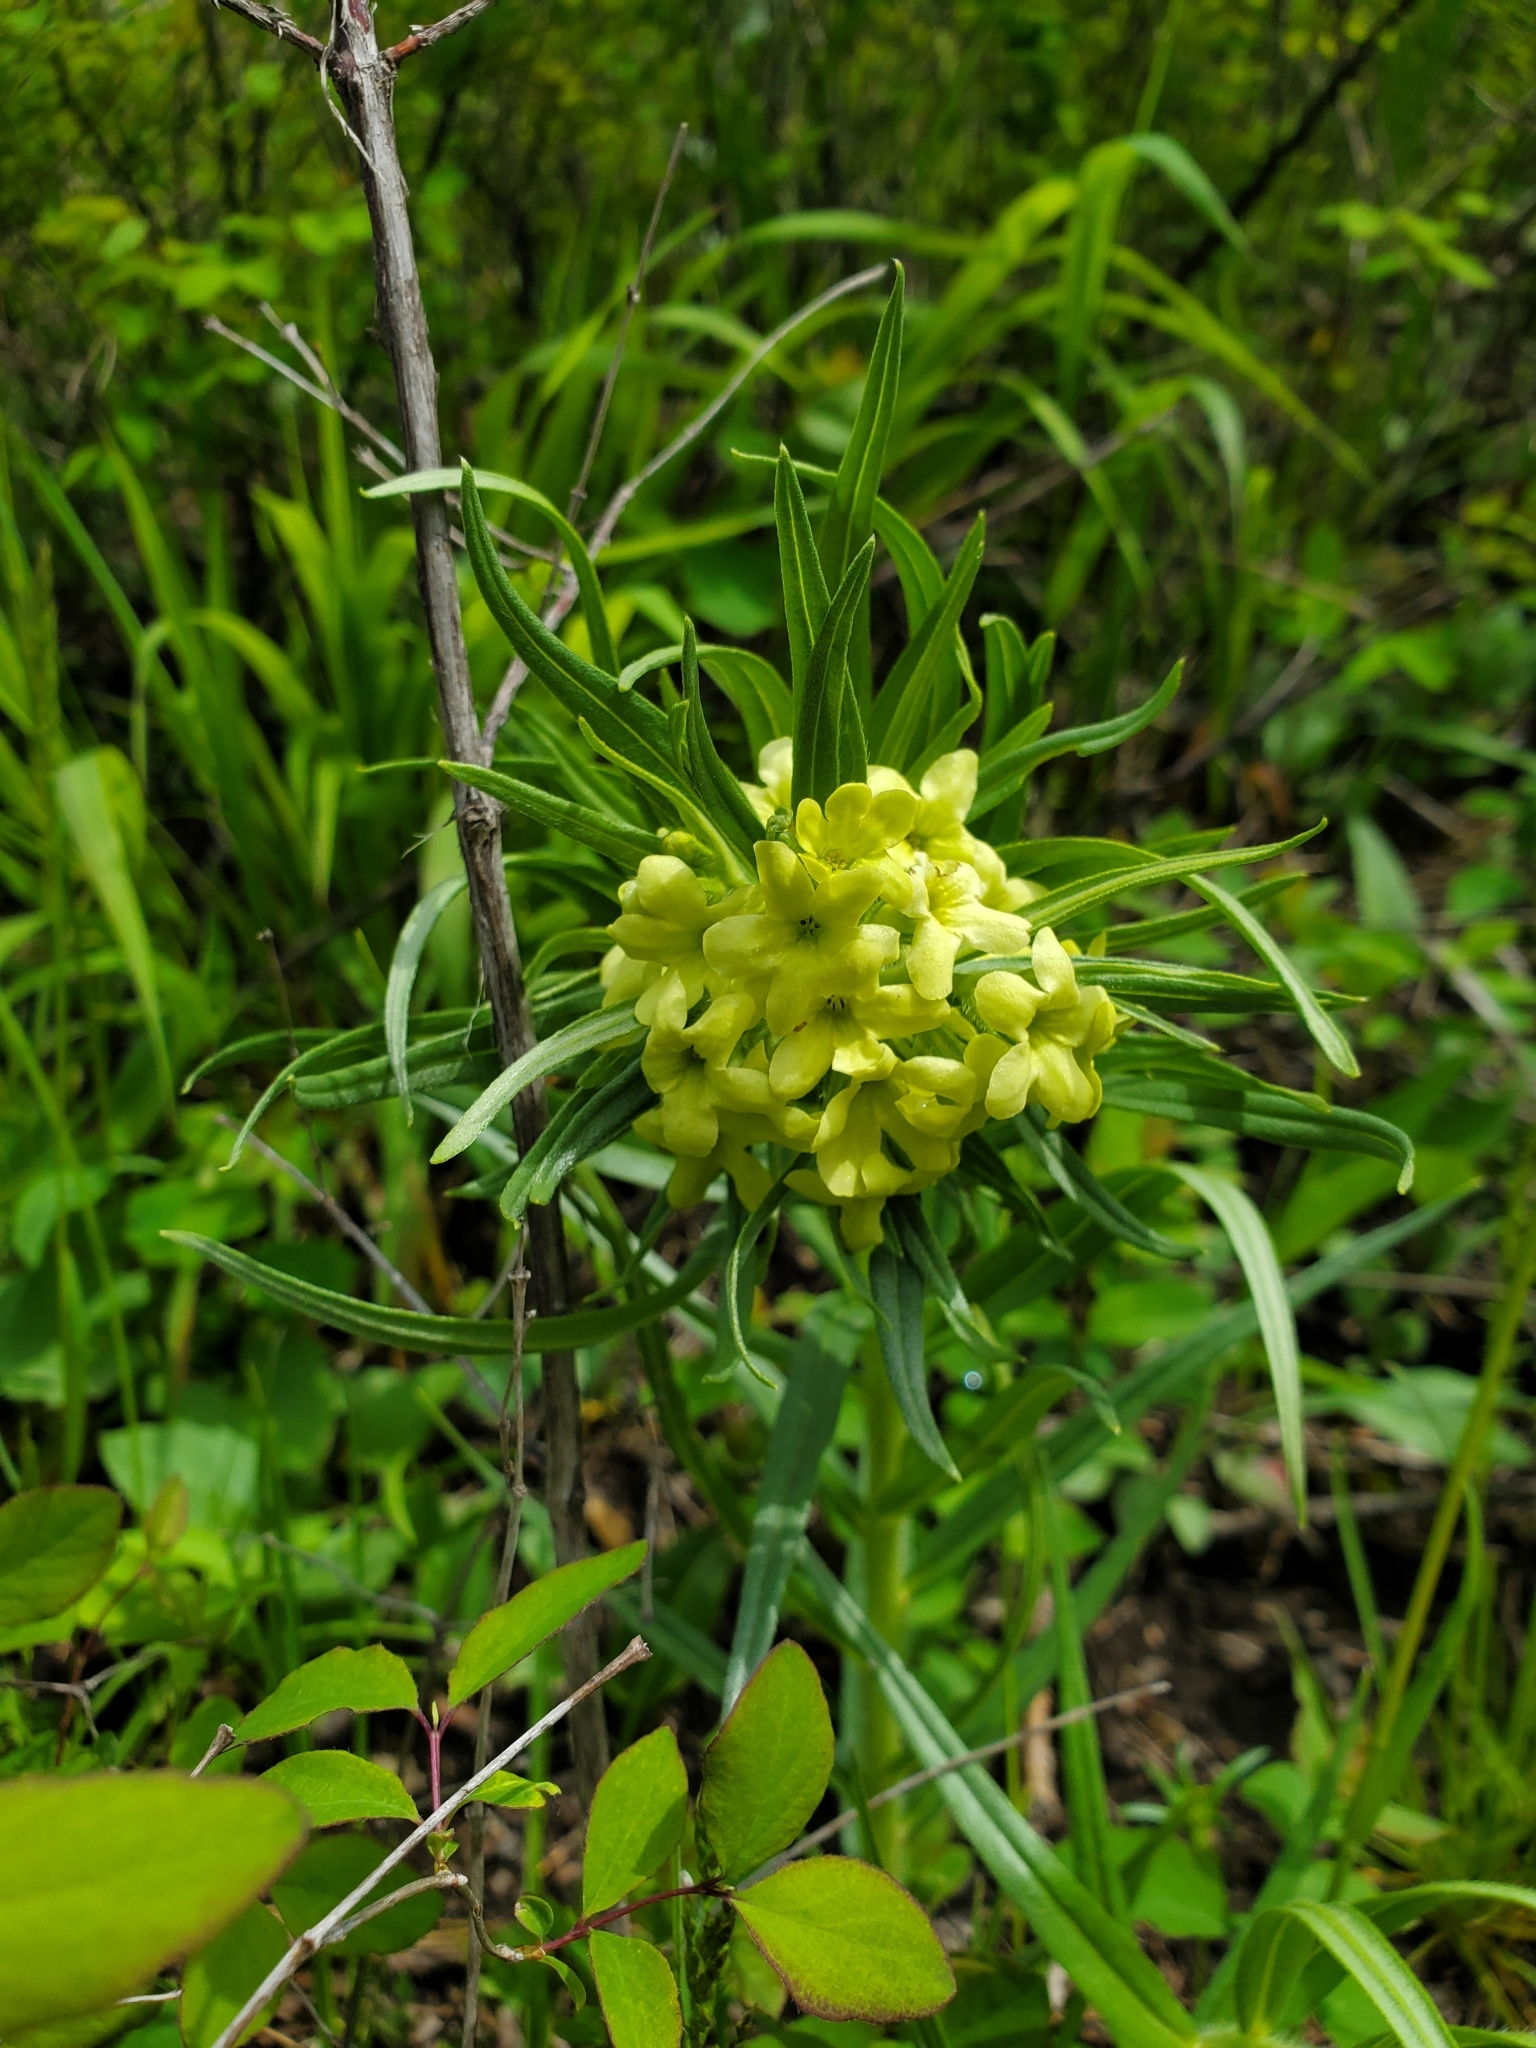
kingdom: Plantae
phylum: Tracheophyta
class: Magnoliopsida
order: Boraginales
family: Boraginaceae
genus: Lithospermum
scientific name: Lithospermum ruderale
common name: Western gromwell
